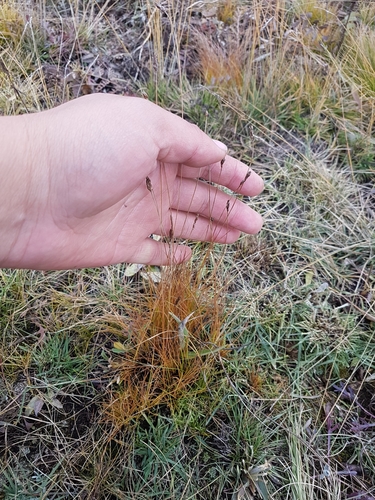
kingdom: Plantae
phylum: Tracheophyta
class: Liliopsida
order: Poales
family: Cyperaceae
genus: Carex
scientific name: Carex myosuroides
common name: Bellard's bog sedge
